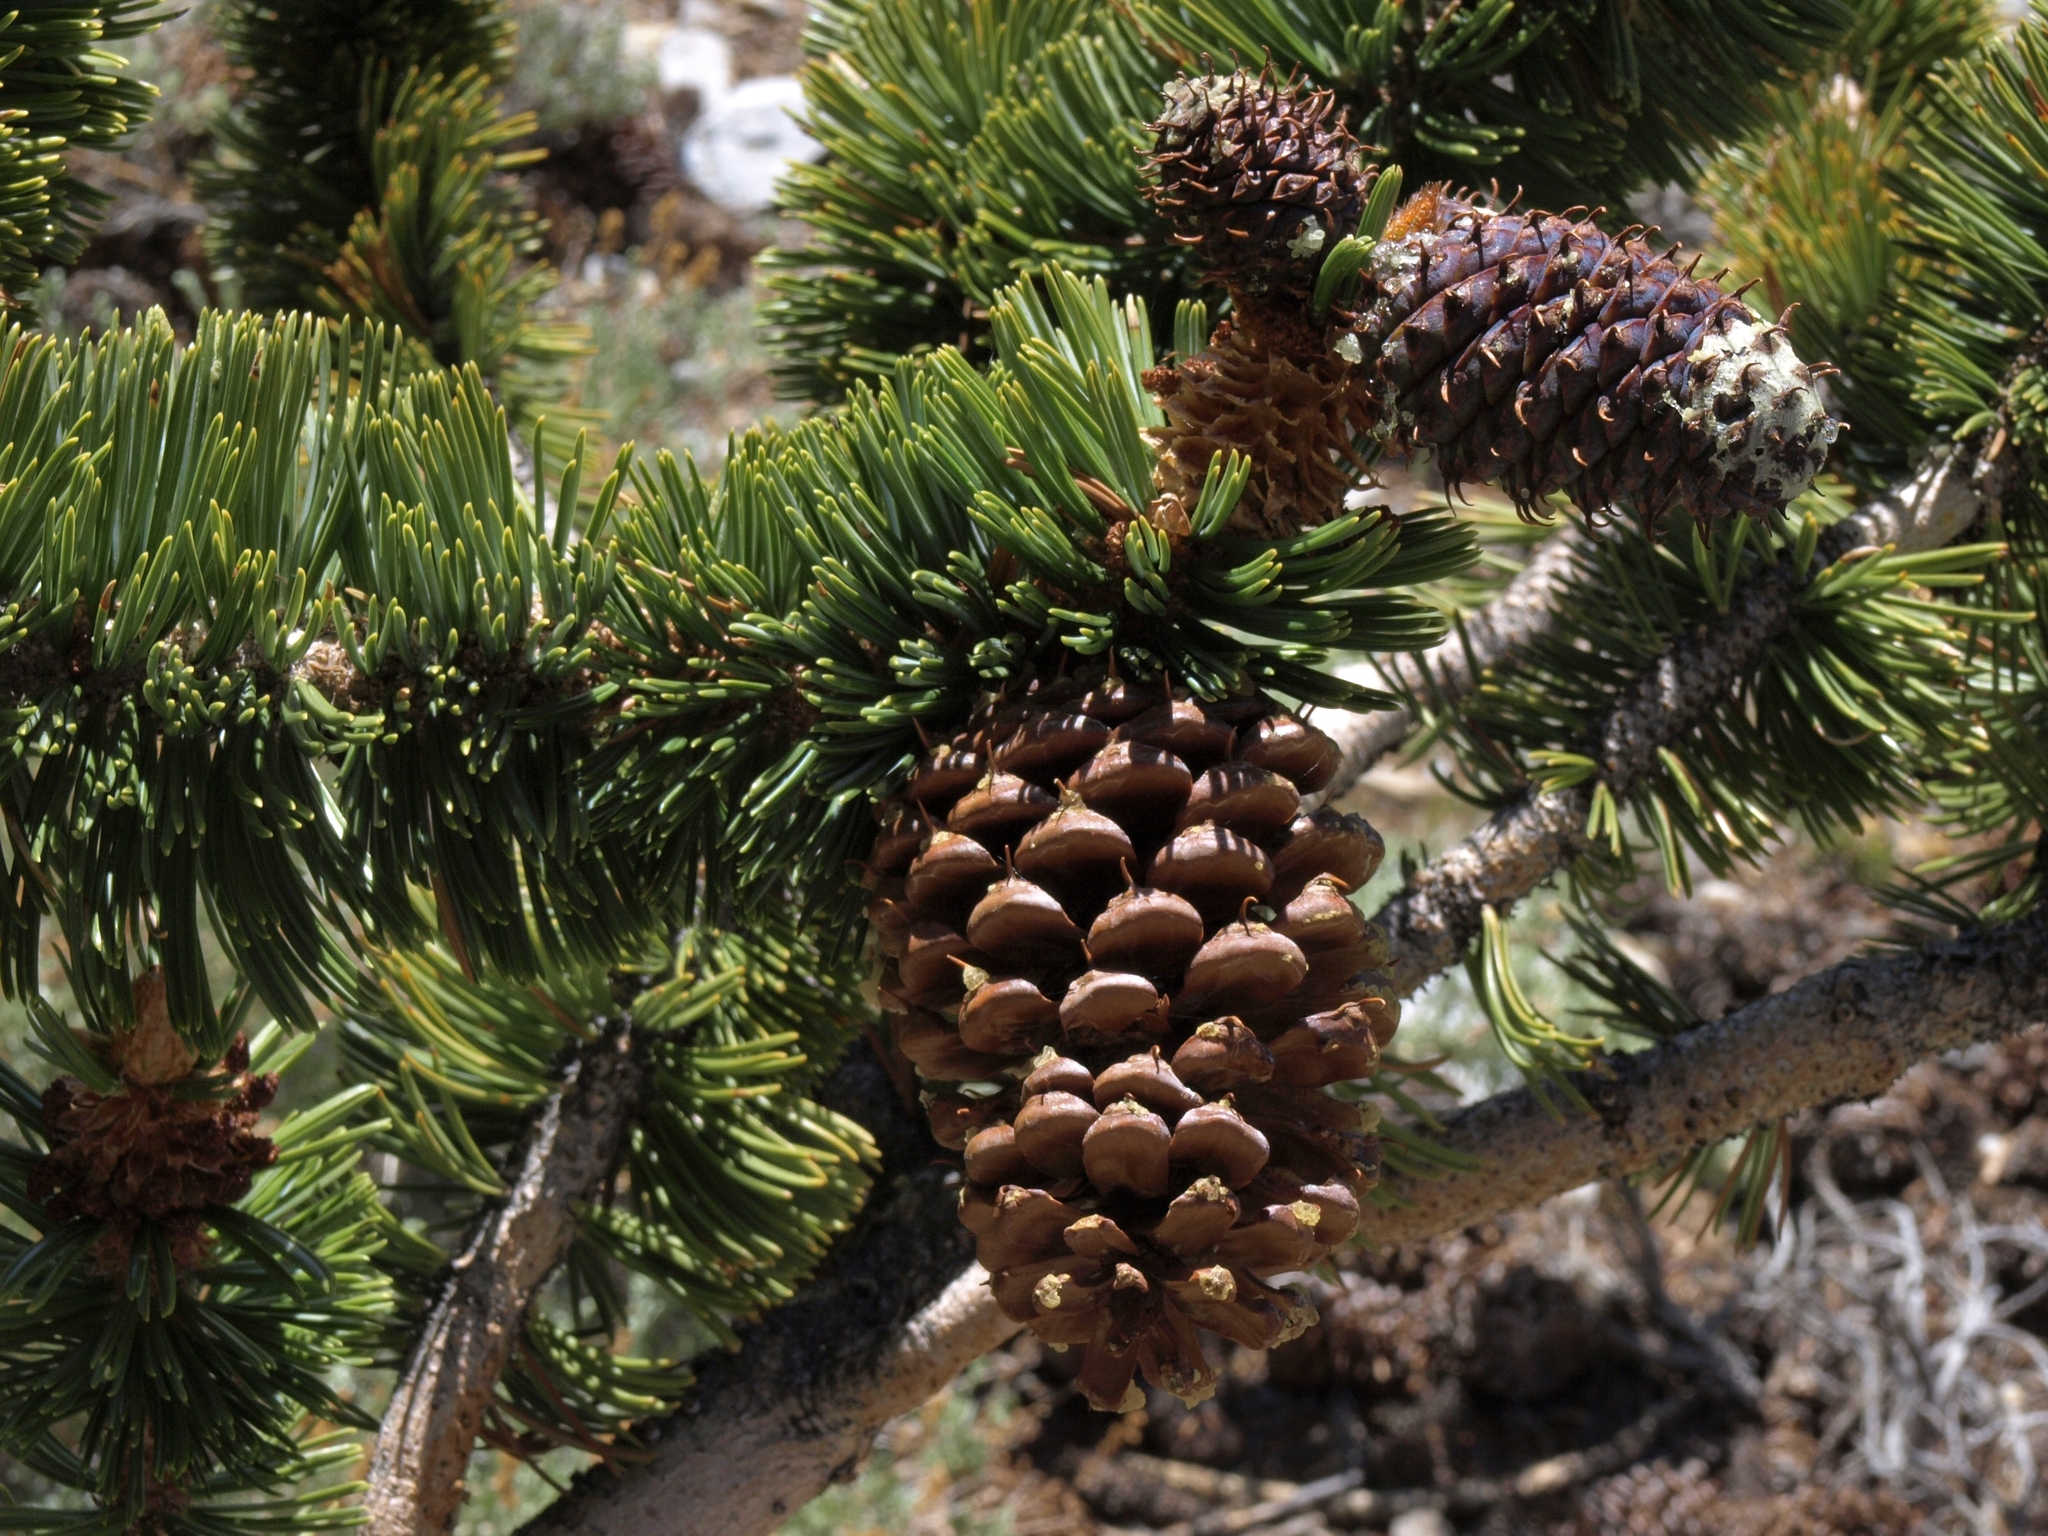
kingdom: Plantae
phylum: Tracheophyta
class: Pinopsida
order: Pinales
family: Pinaceae
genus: Pinus
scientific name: Pinus longaeva
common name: Intermountain bristlecone pine
